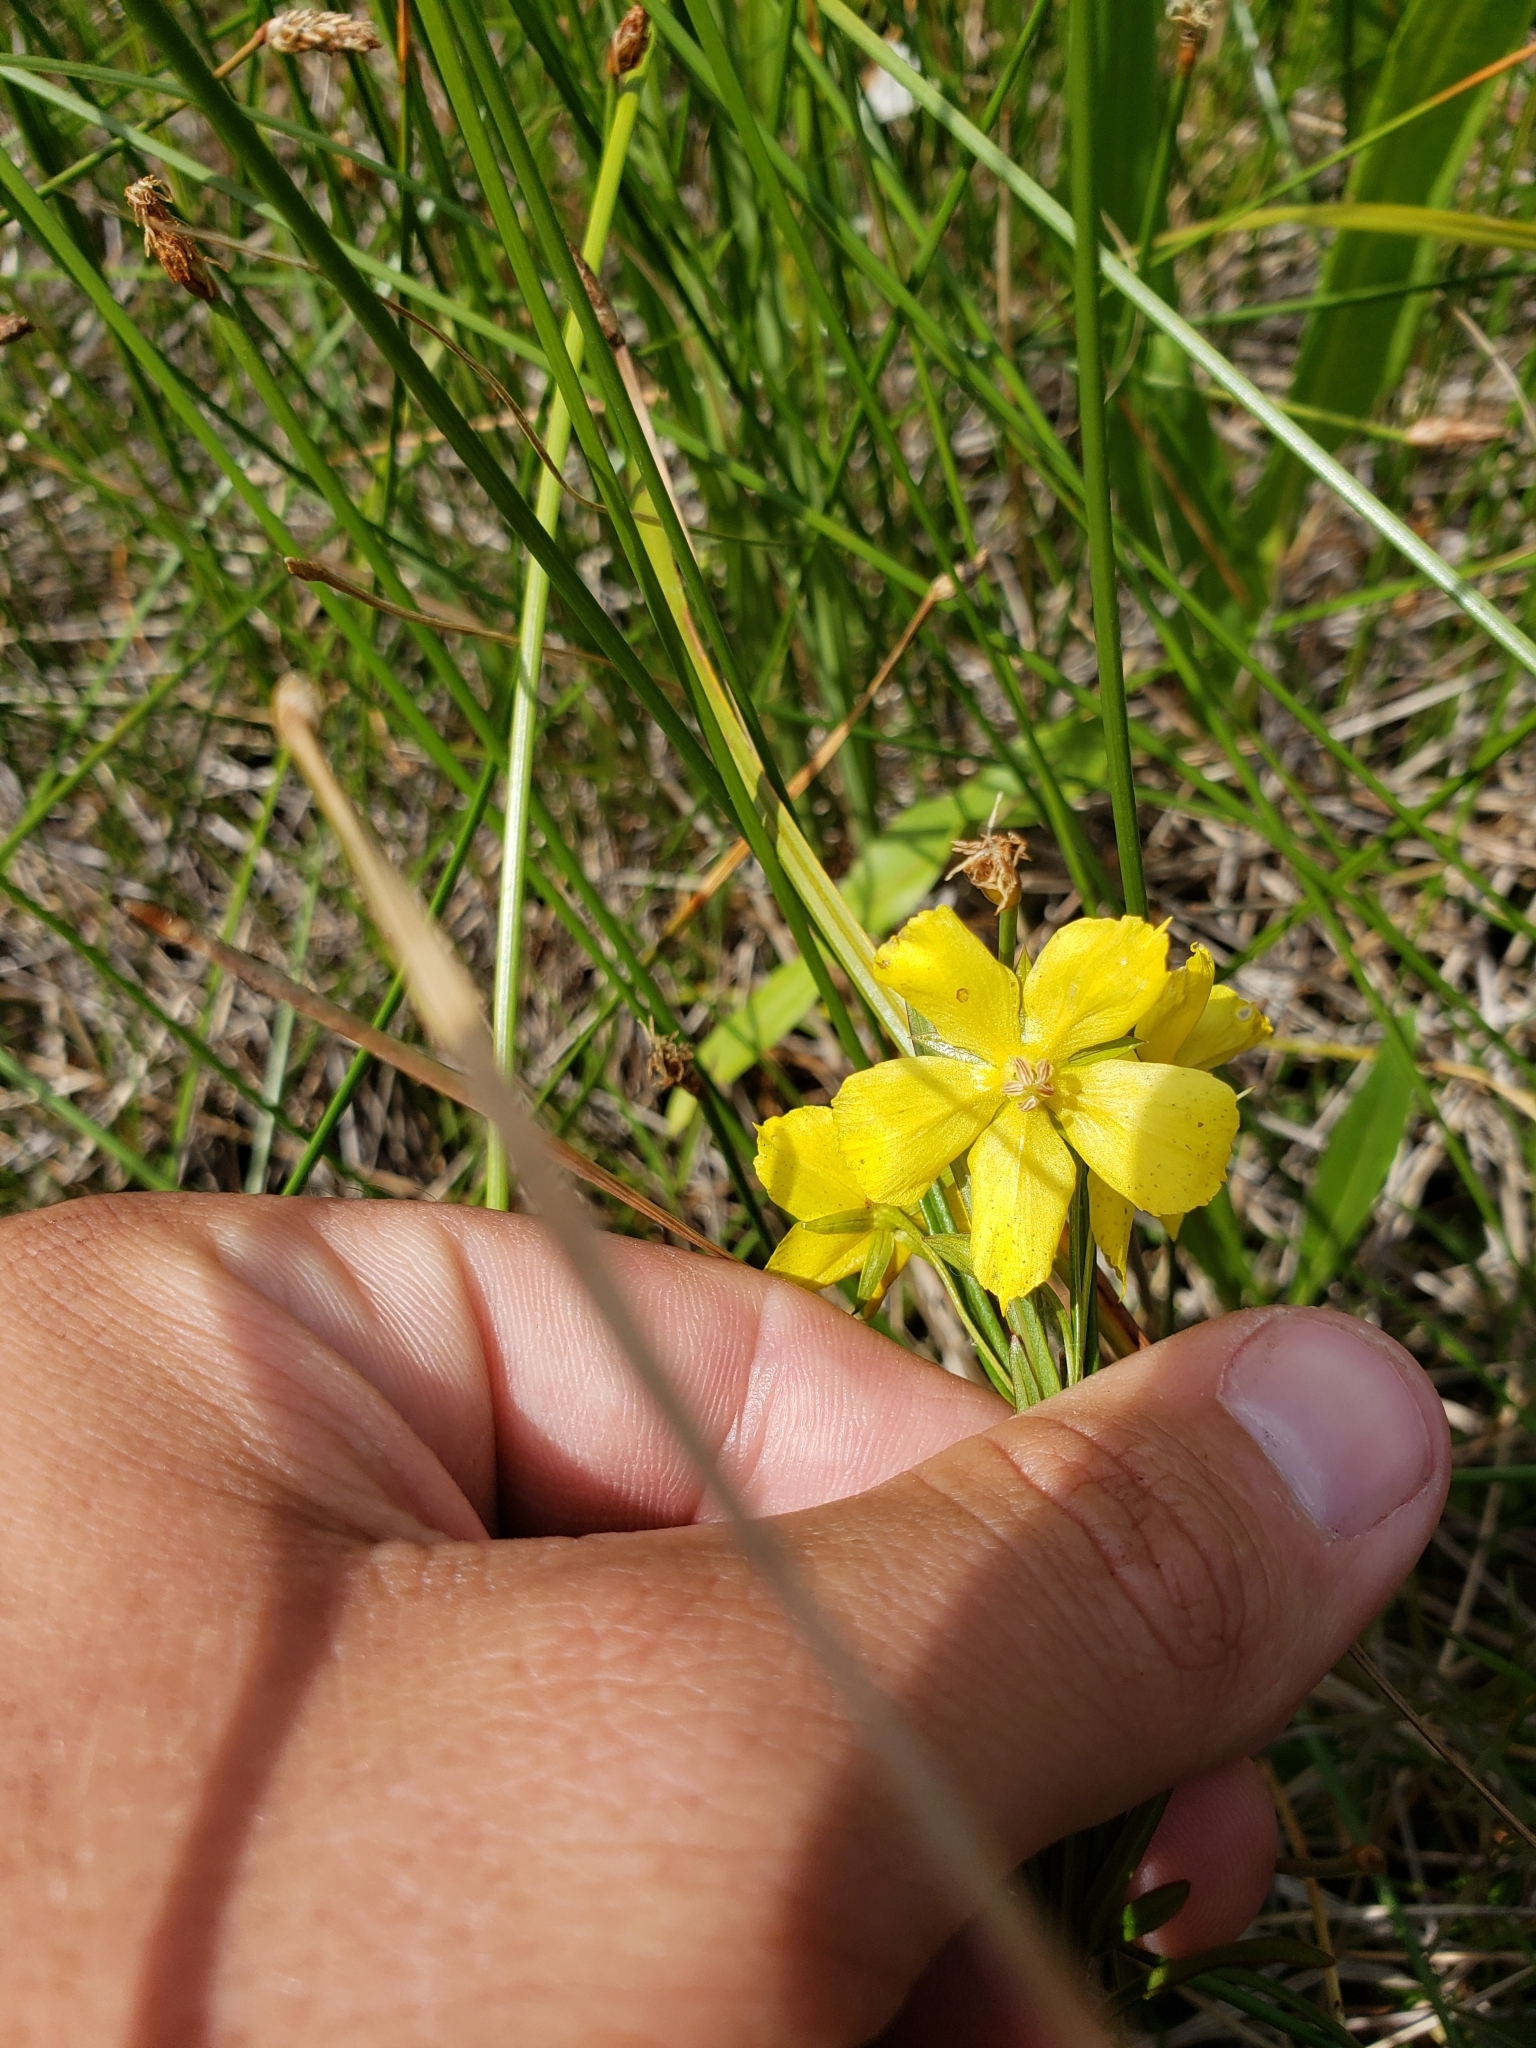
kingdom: Plantae
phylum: Tracheophyta
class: Magnoliopsida
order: Ericales
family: Primulaceae
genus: Lysimachia
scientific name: Lysimachia quadriflora
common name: Four-flowered loosestrife
